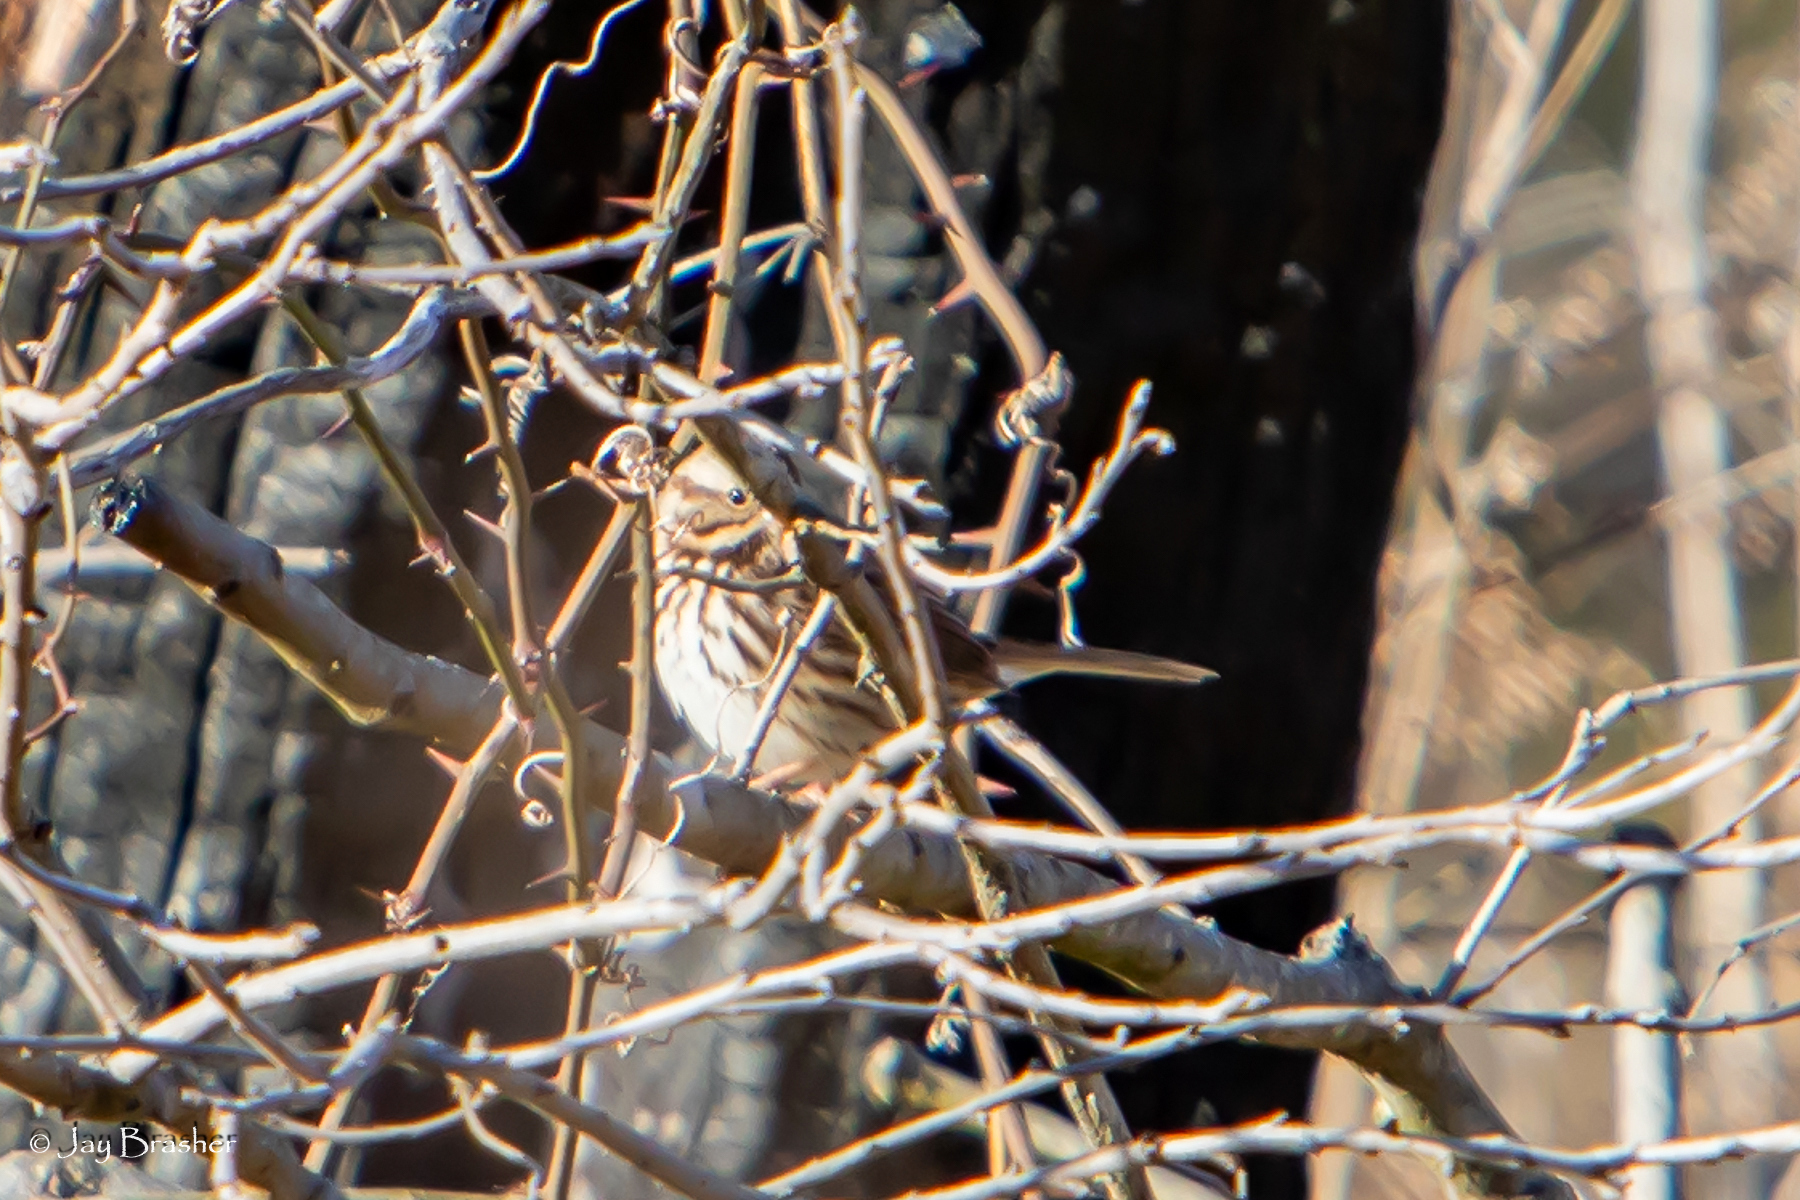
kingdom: Animalia
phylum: Chordata
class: Aves
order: Passeriformes
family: Passerellidae
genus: Melospiza
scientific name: Melospiza melodia
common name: Song sparrow
